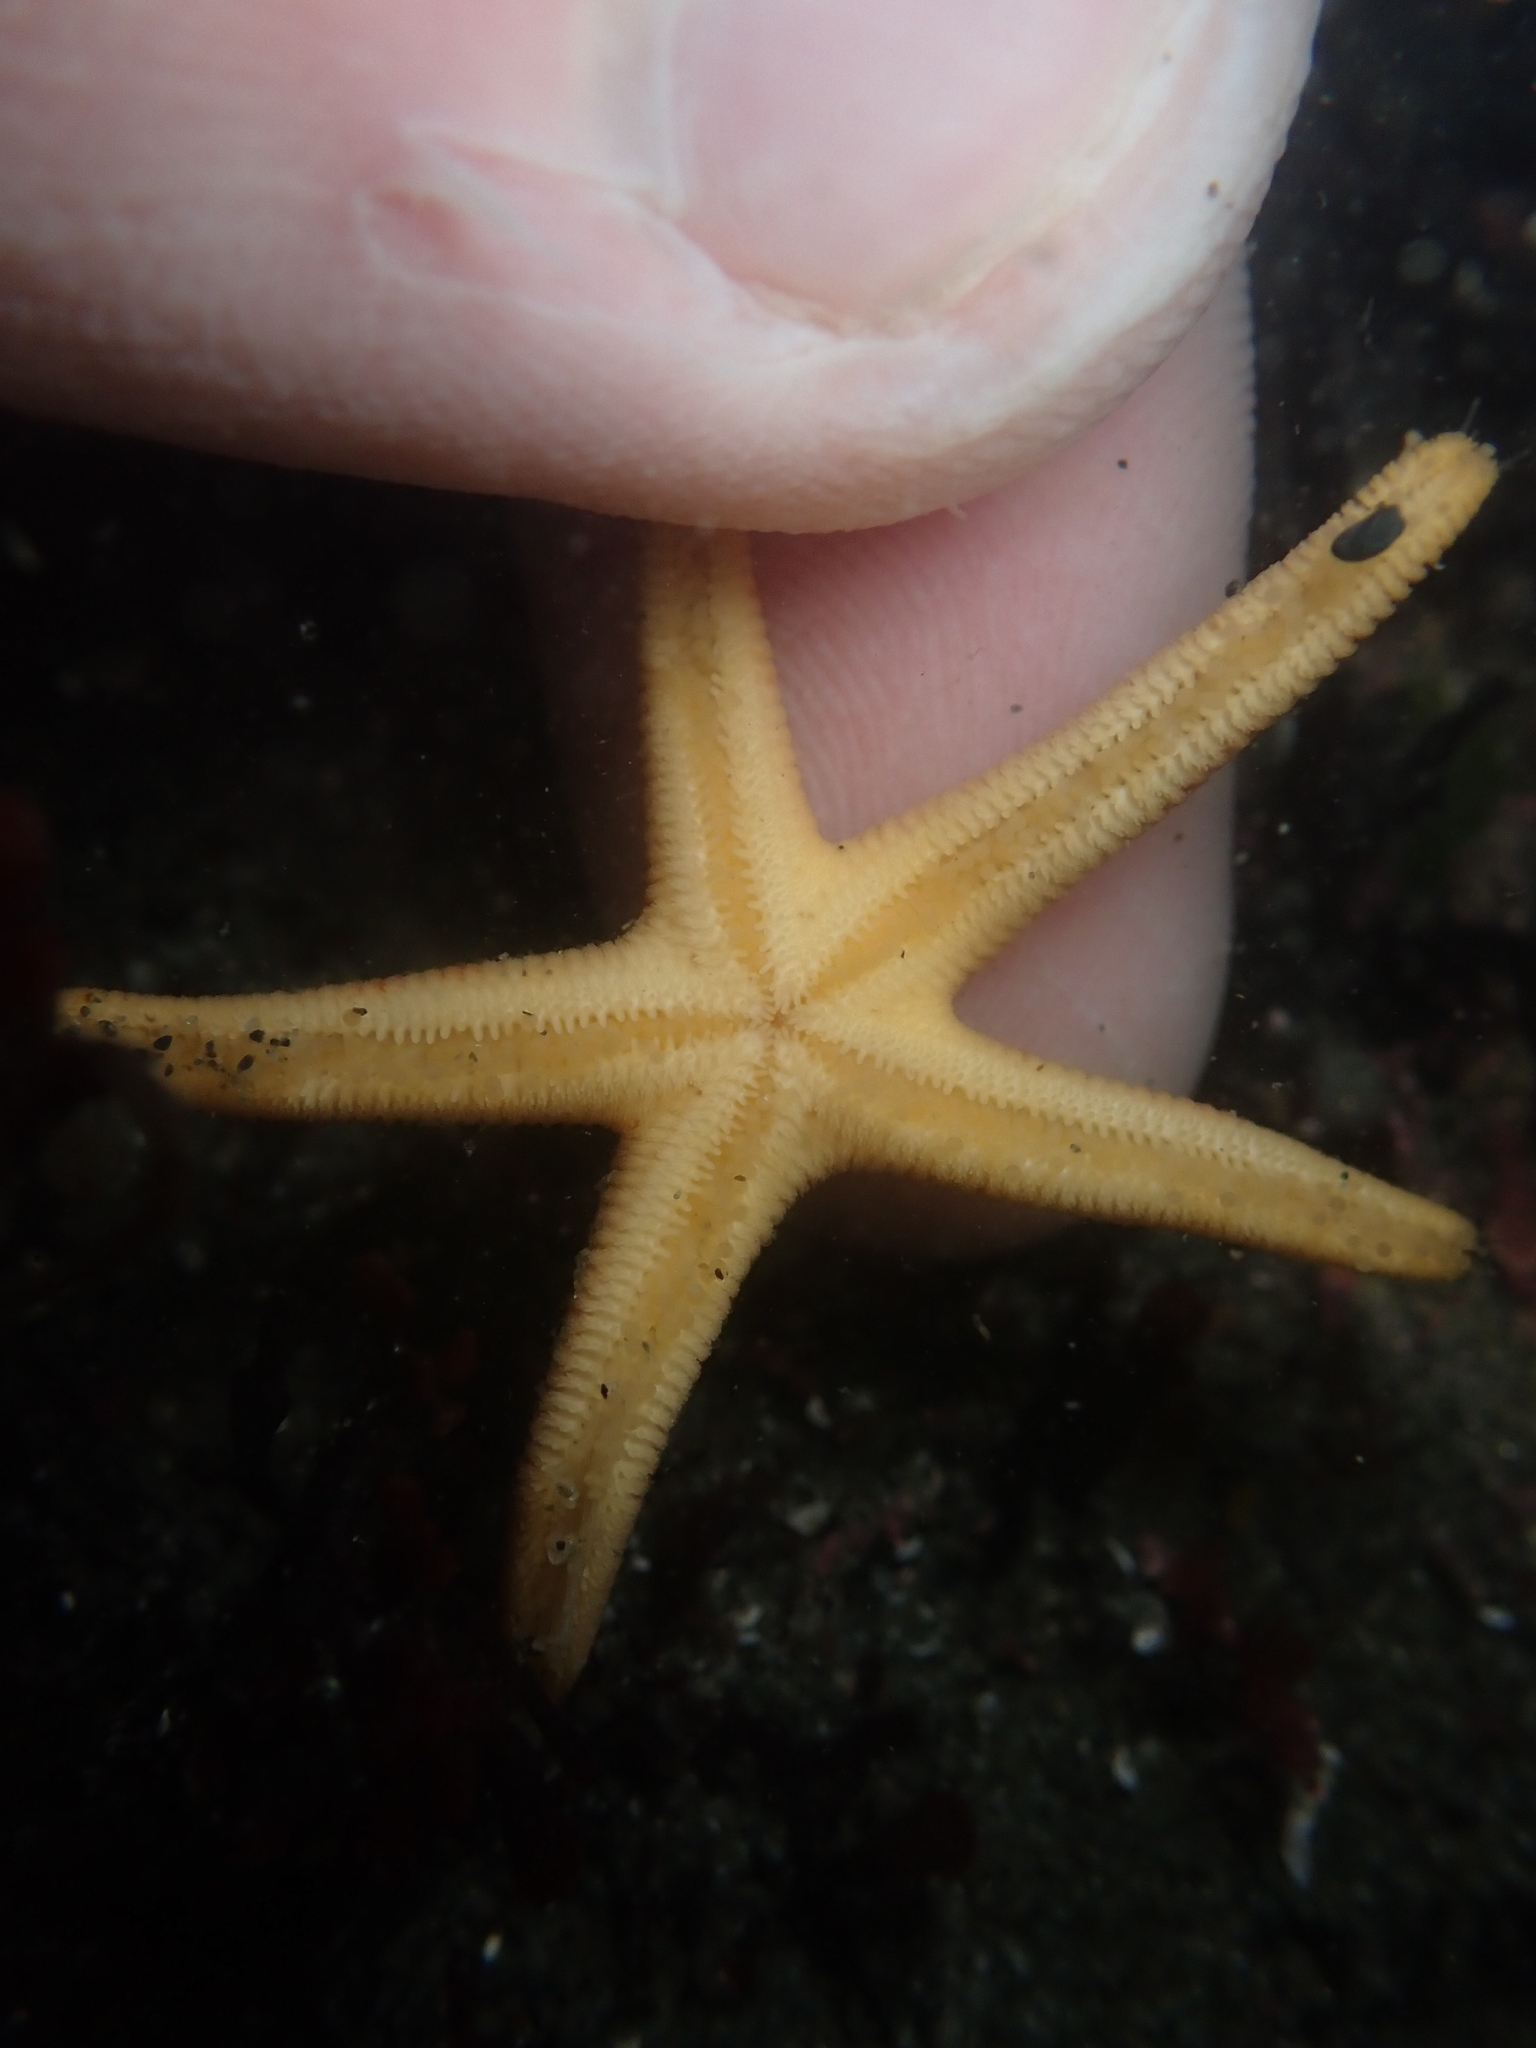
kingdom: Animalia
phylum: Echinodermata
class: Asteroidea
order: Spinulosida
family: Echinasteridae
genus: Henricia
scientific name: Henricia pumila
